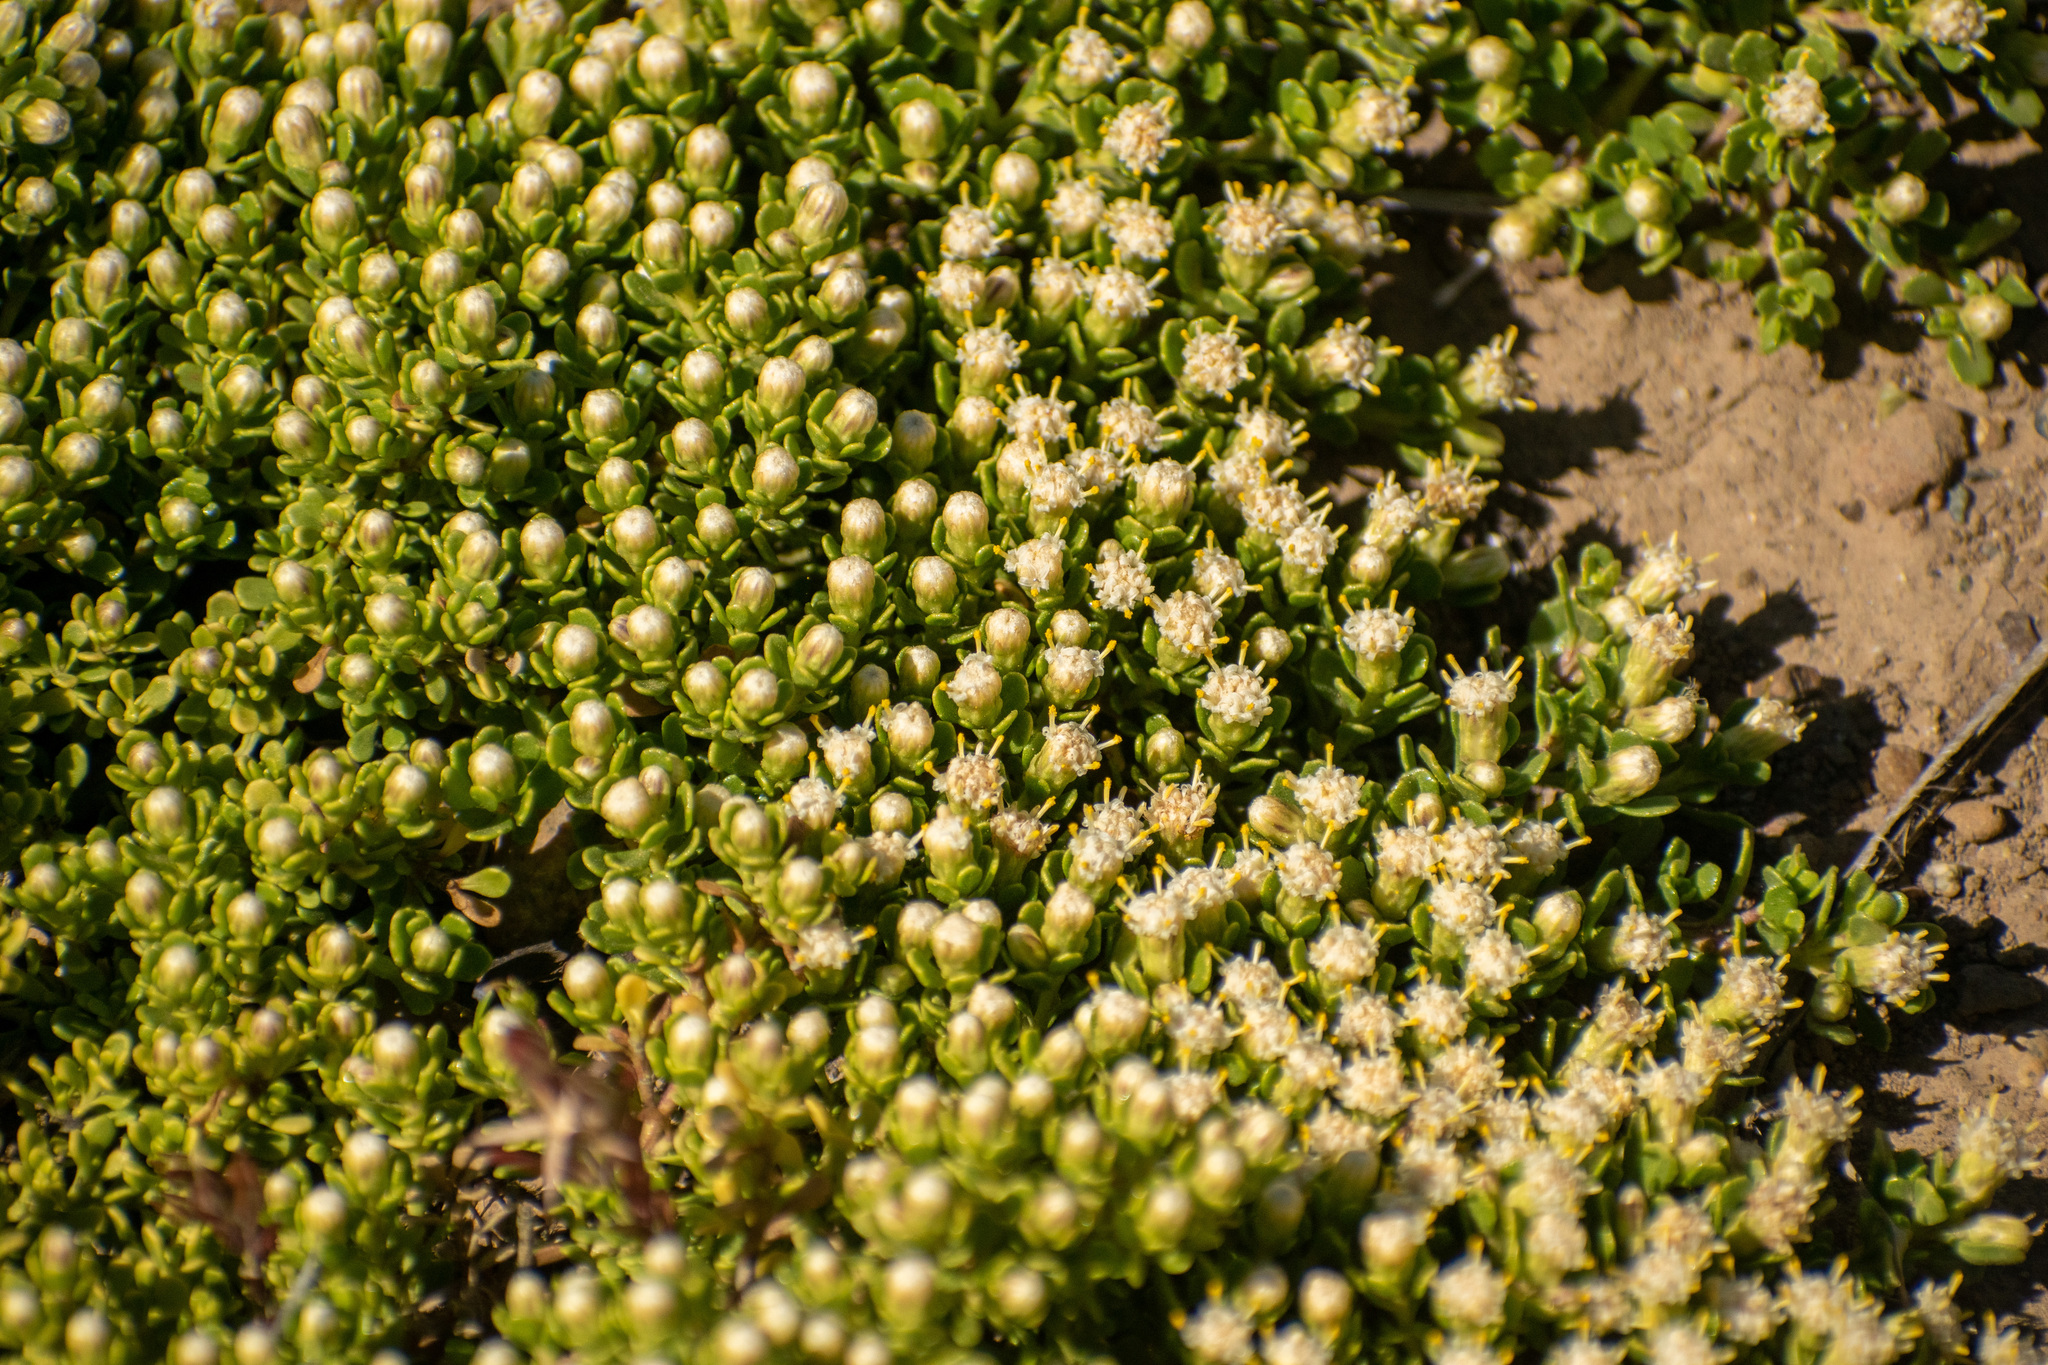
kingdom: Plantae
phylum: Tracheophyta
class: Magnoliopsida
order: Asterales
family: Asteraceae
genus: Baccharis
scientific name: Baccharis magellanica
